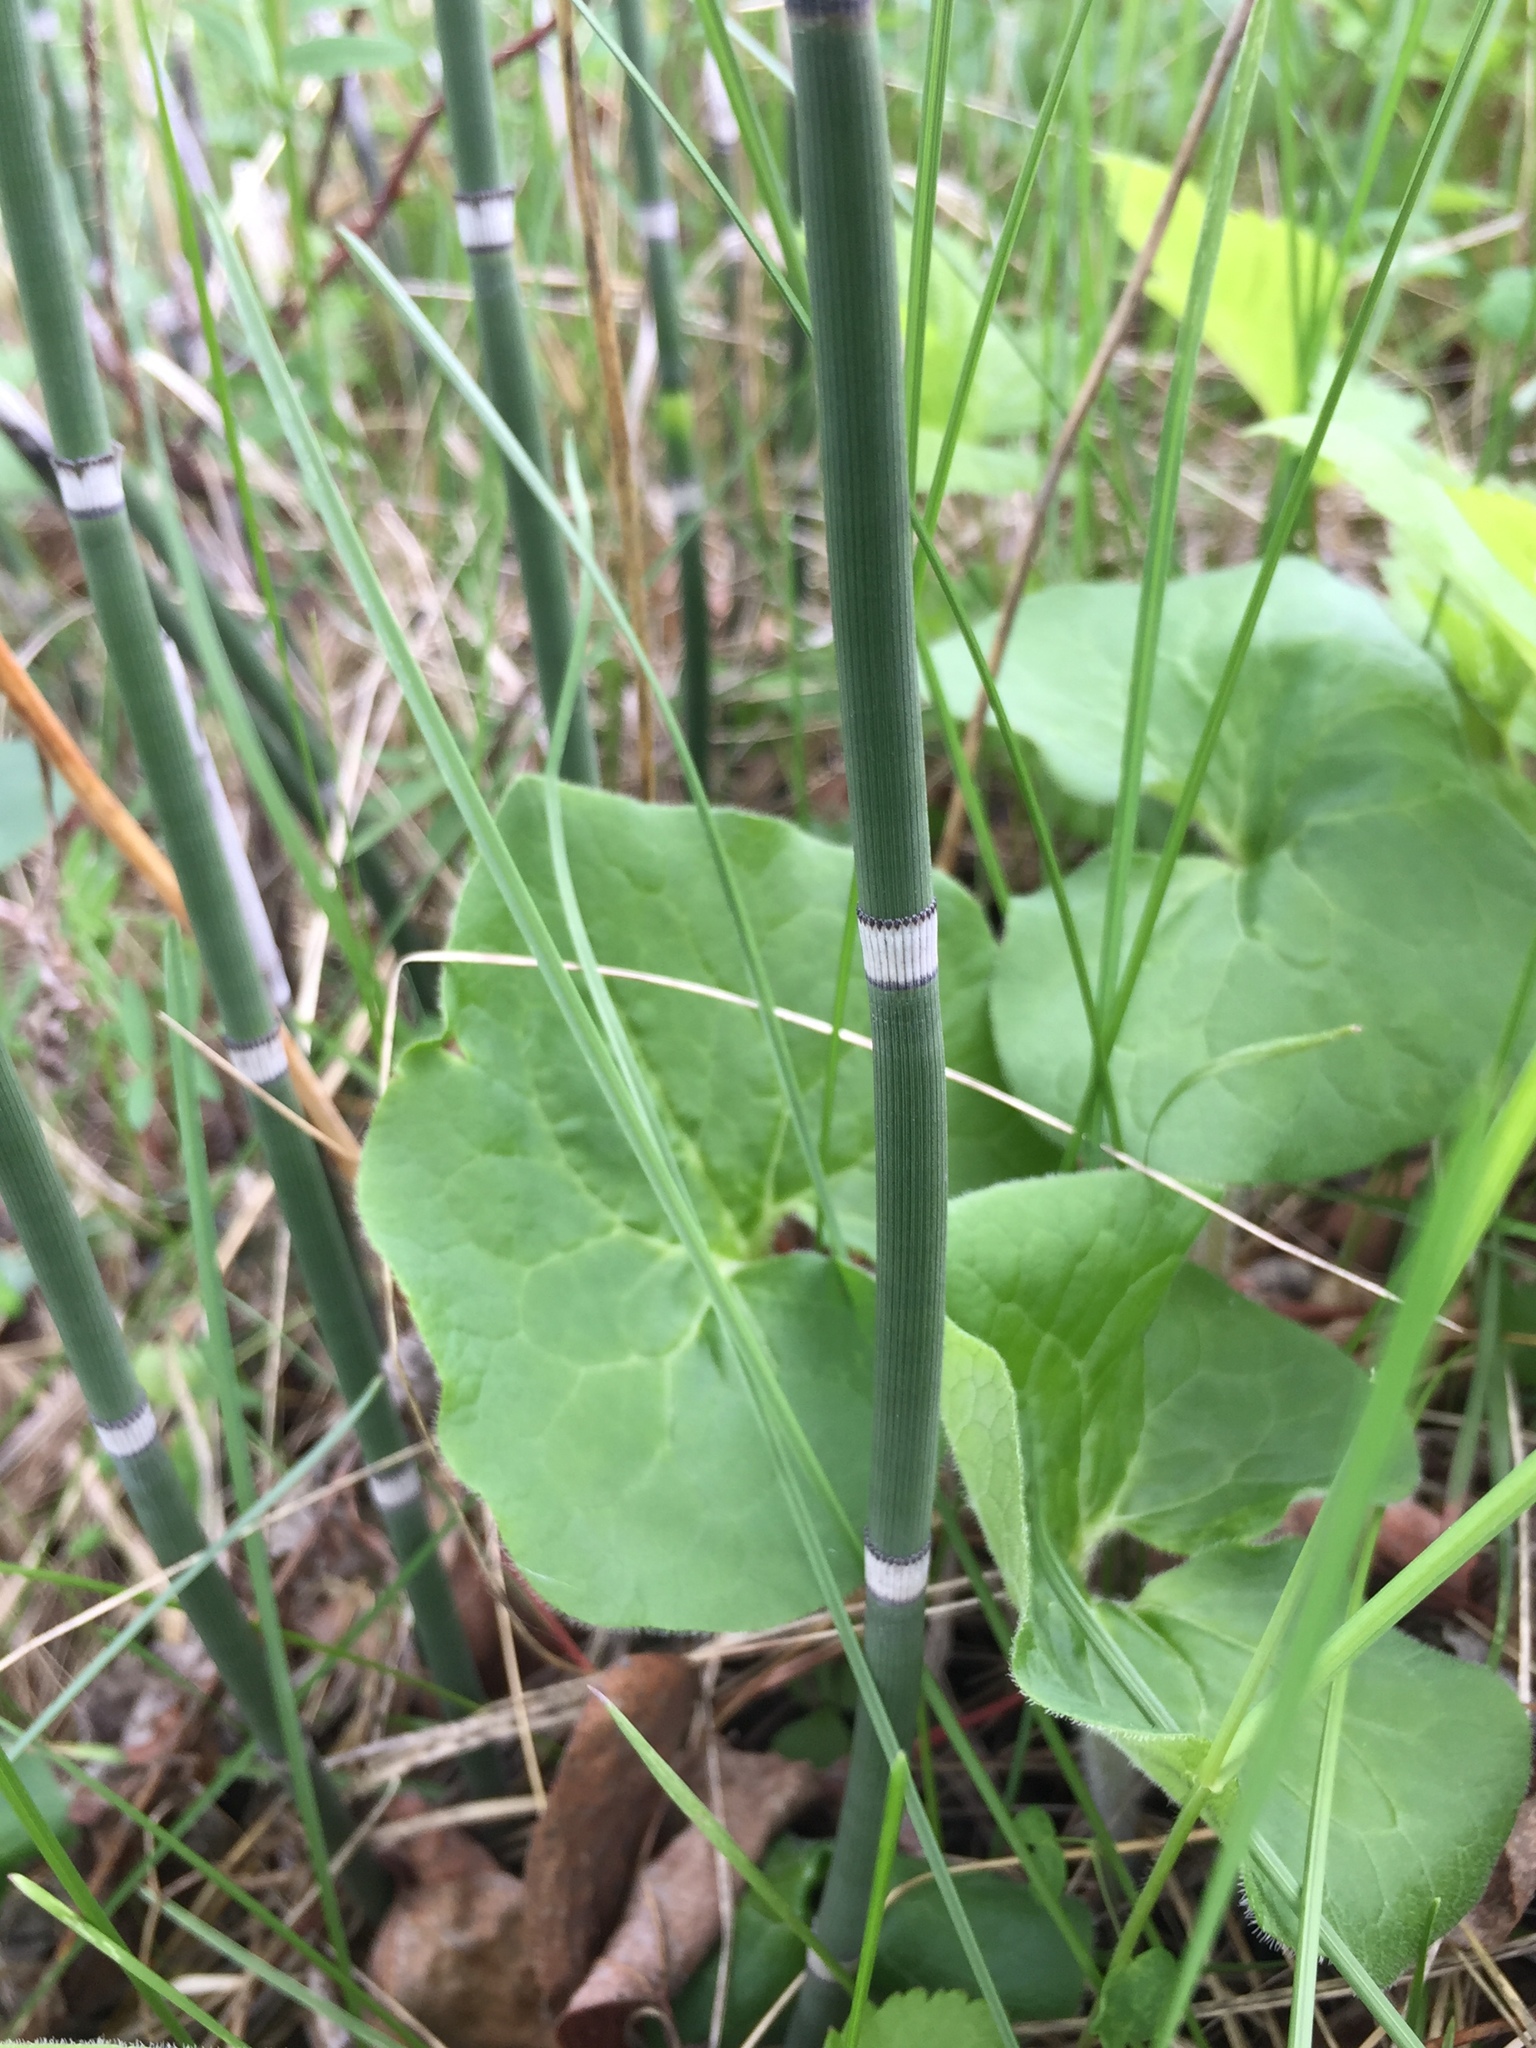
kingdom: Plantae
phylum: Tracheophyta
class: Polypodiopsida
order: Equisetales
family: Equisetaceae
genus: Equisetum
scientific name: Equisetum praealtum
